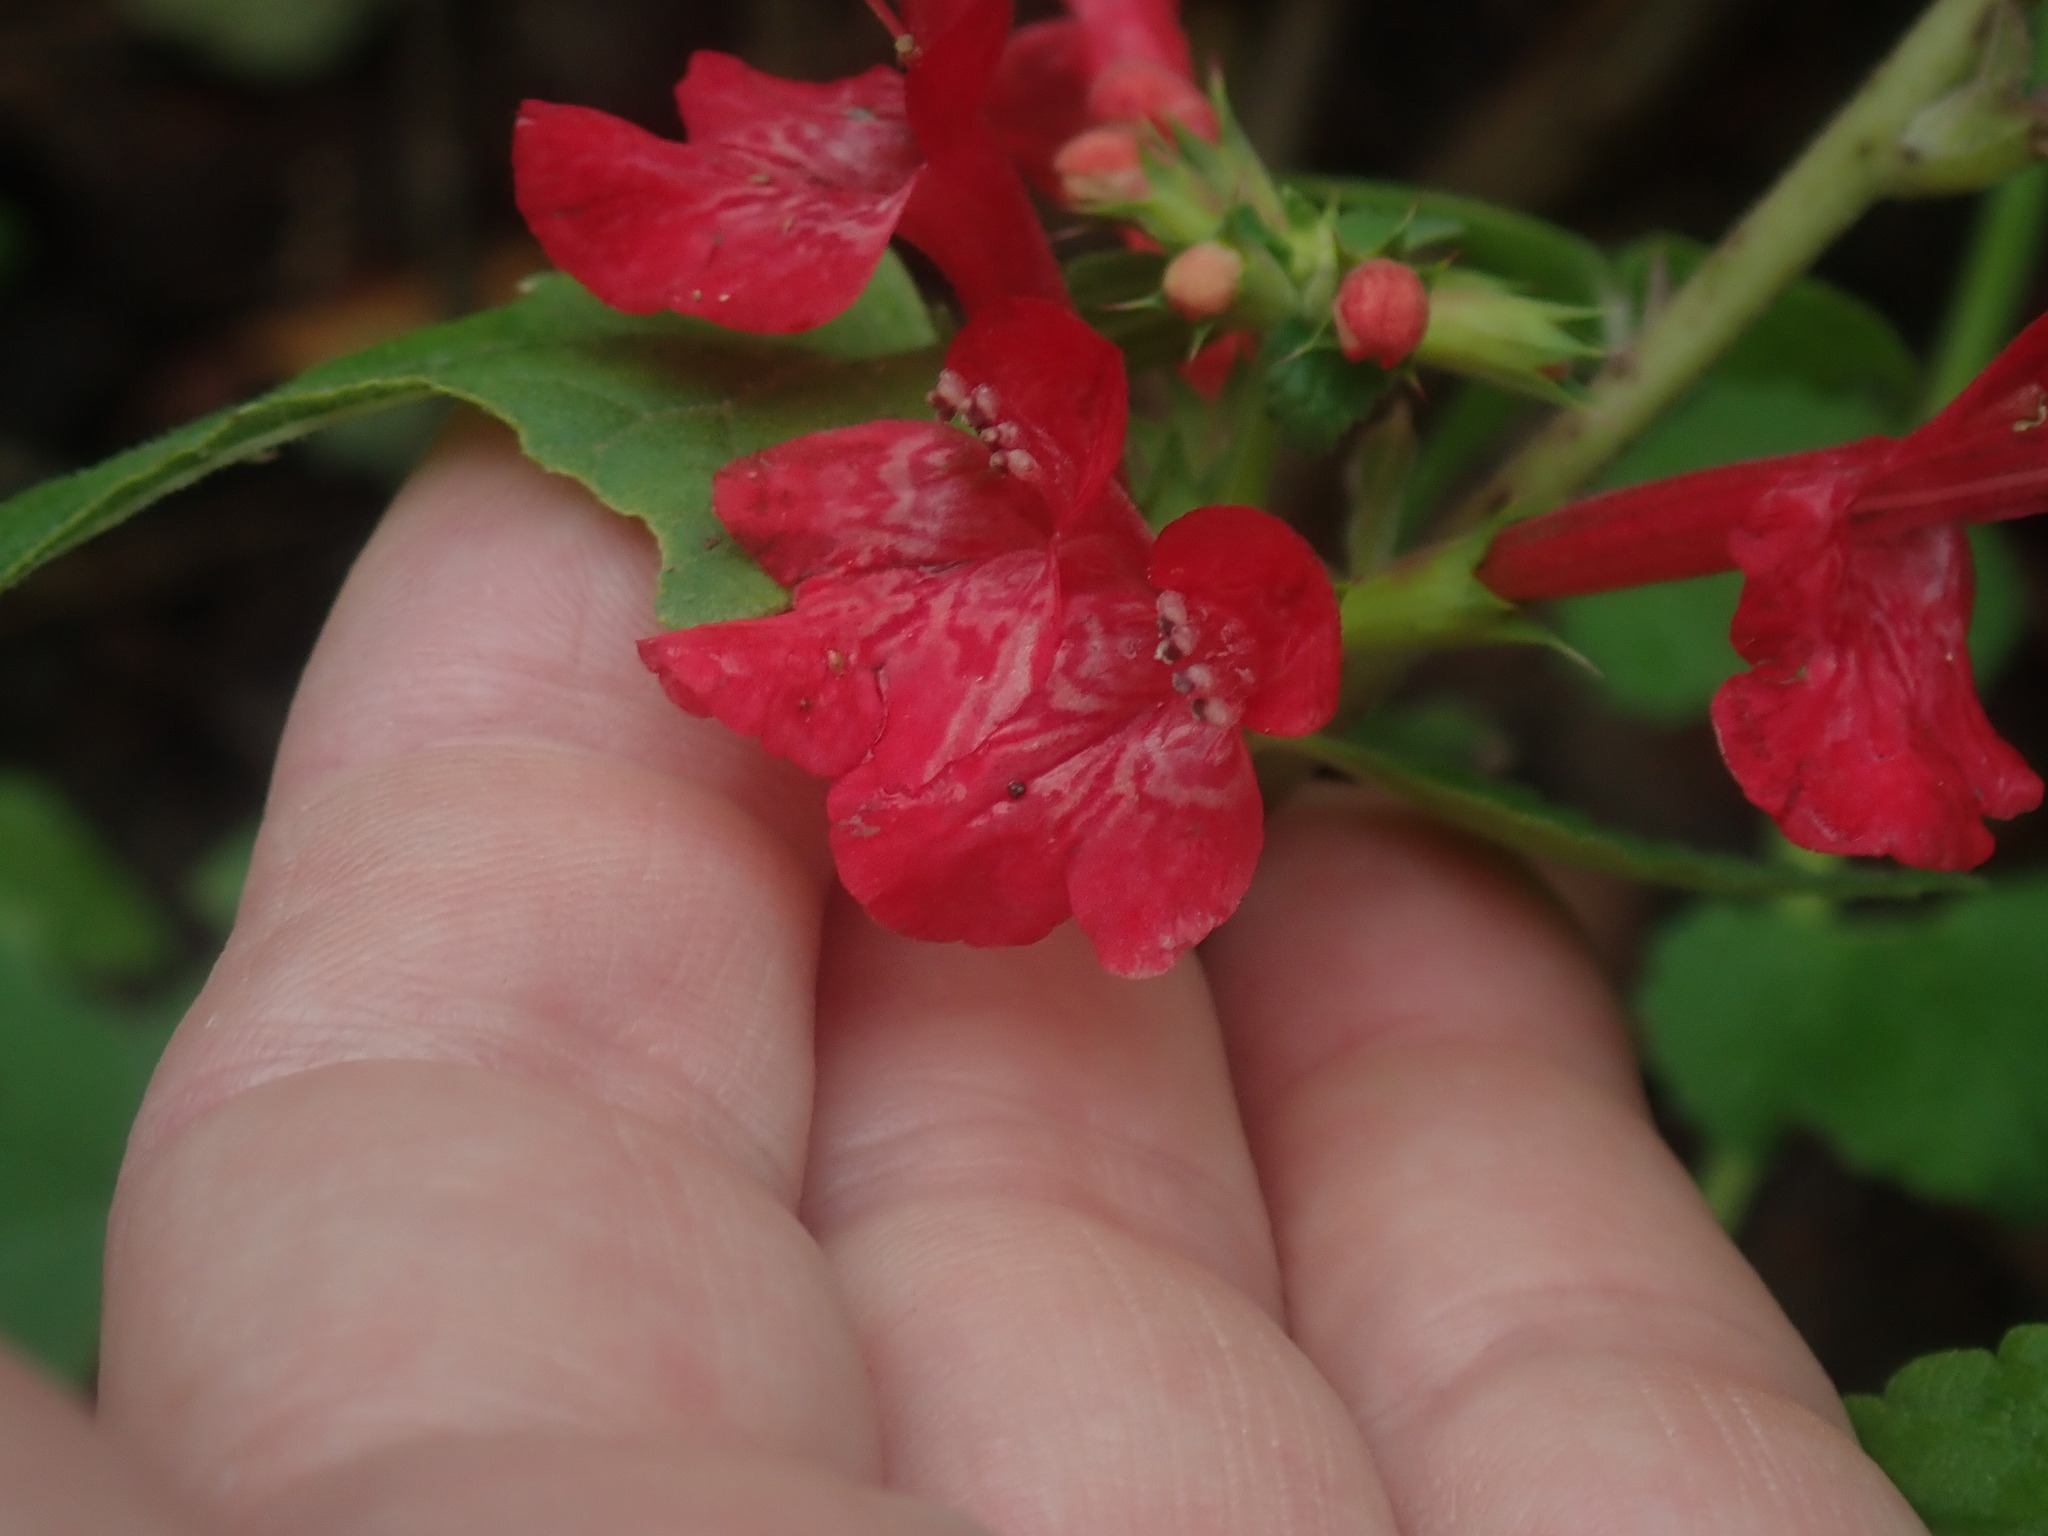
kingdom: Plantae
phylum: Tracheophyta
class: Magnoliopsida
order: Lamiales
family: Lamiaceae
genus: Stachys
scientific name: Stachys coccinea
